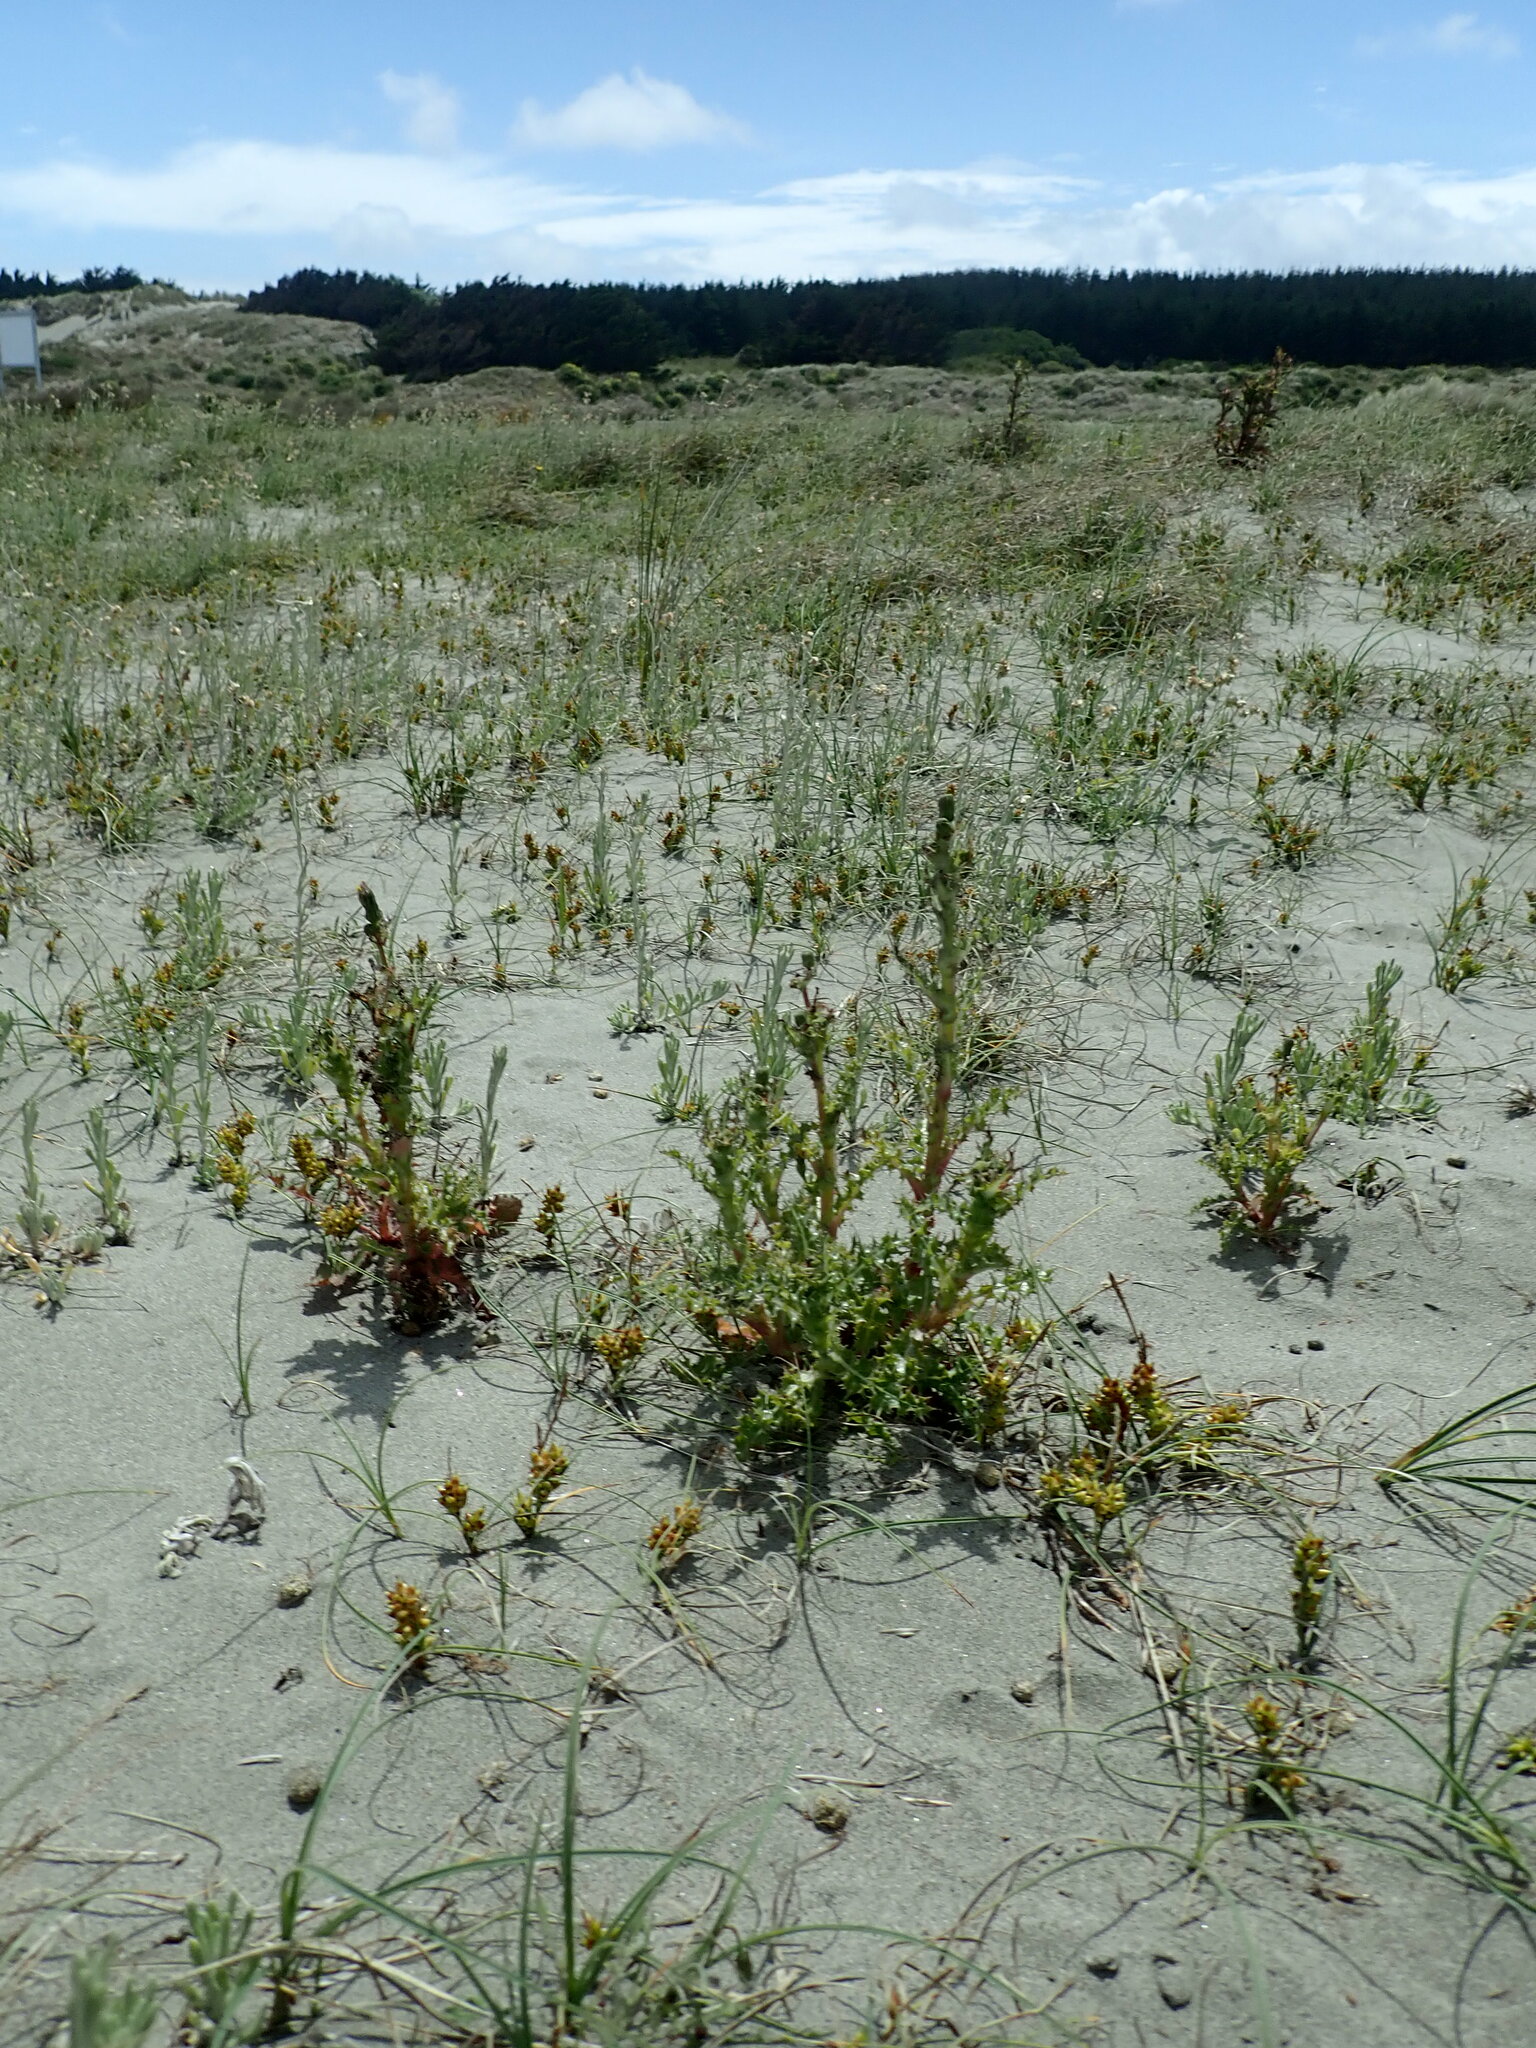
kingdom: Plantae
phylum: Tracheophyta
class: Magnoliopsida
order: Asterales
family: Asteraceae
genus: Sonchus
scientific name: Sonchus asper
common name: Prickly sow-thistle
